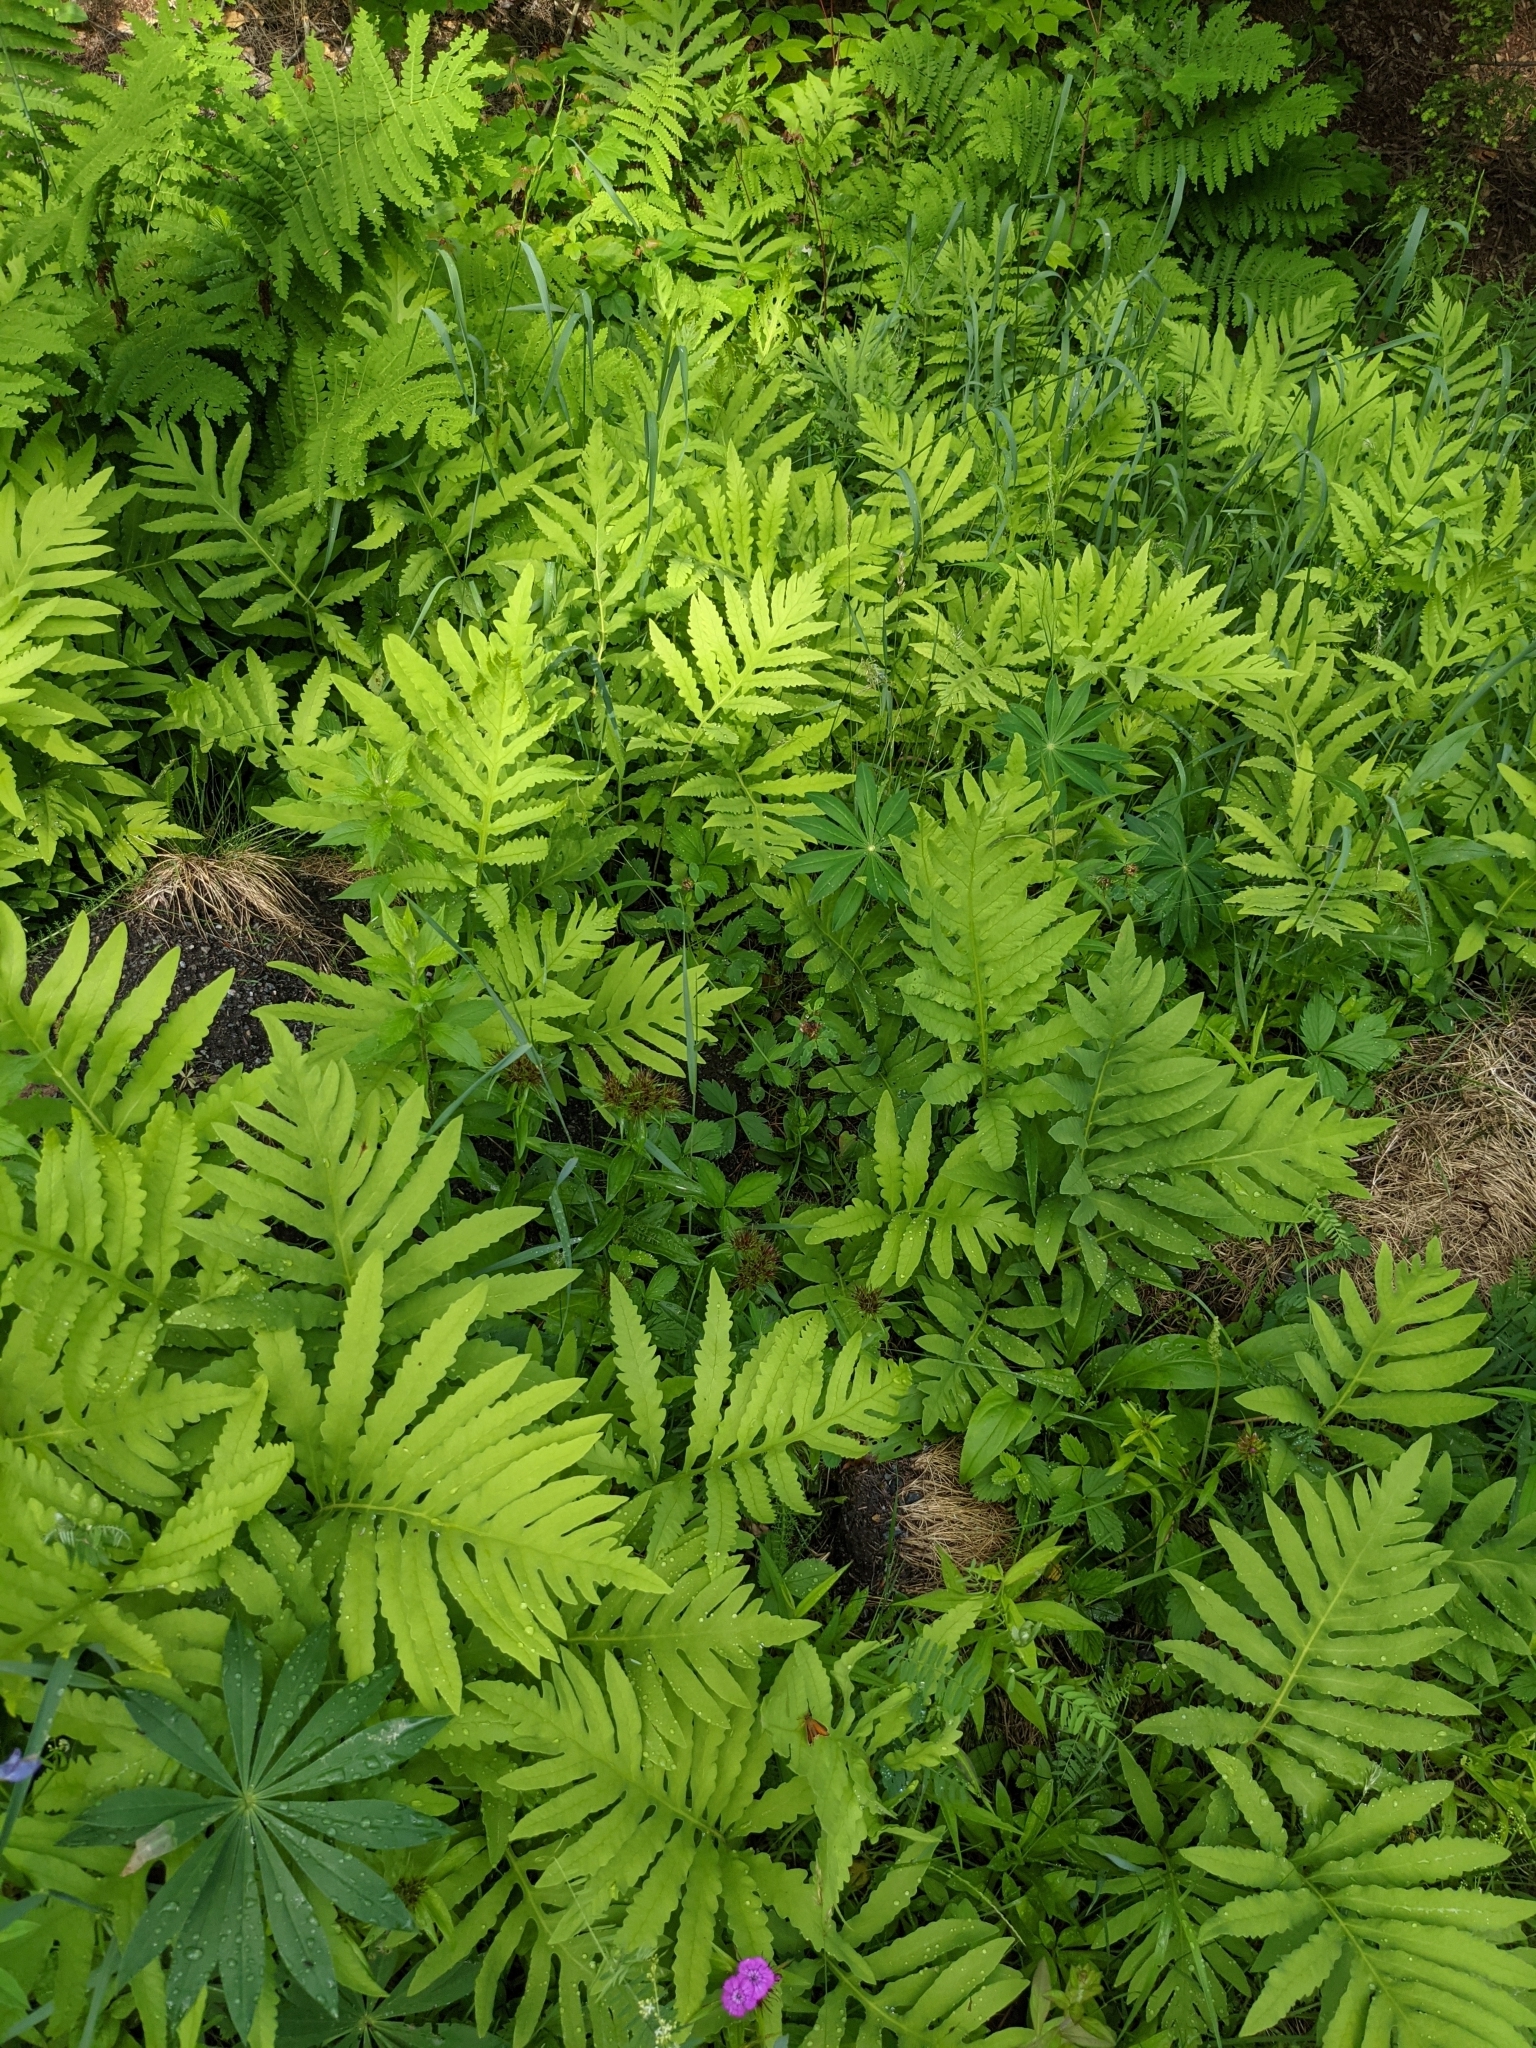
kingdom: Plantae
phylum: Tracheophyta
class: Polypodiopsida
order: Polypodiales
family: Onocleaceae
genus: Onoclea
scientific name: Onoclea sensibilis
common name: Sensitive fern
